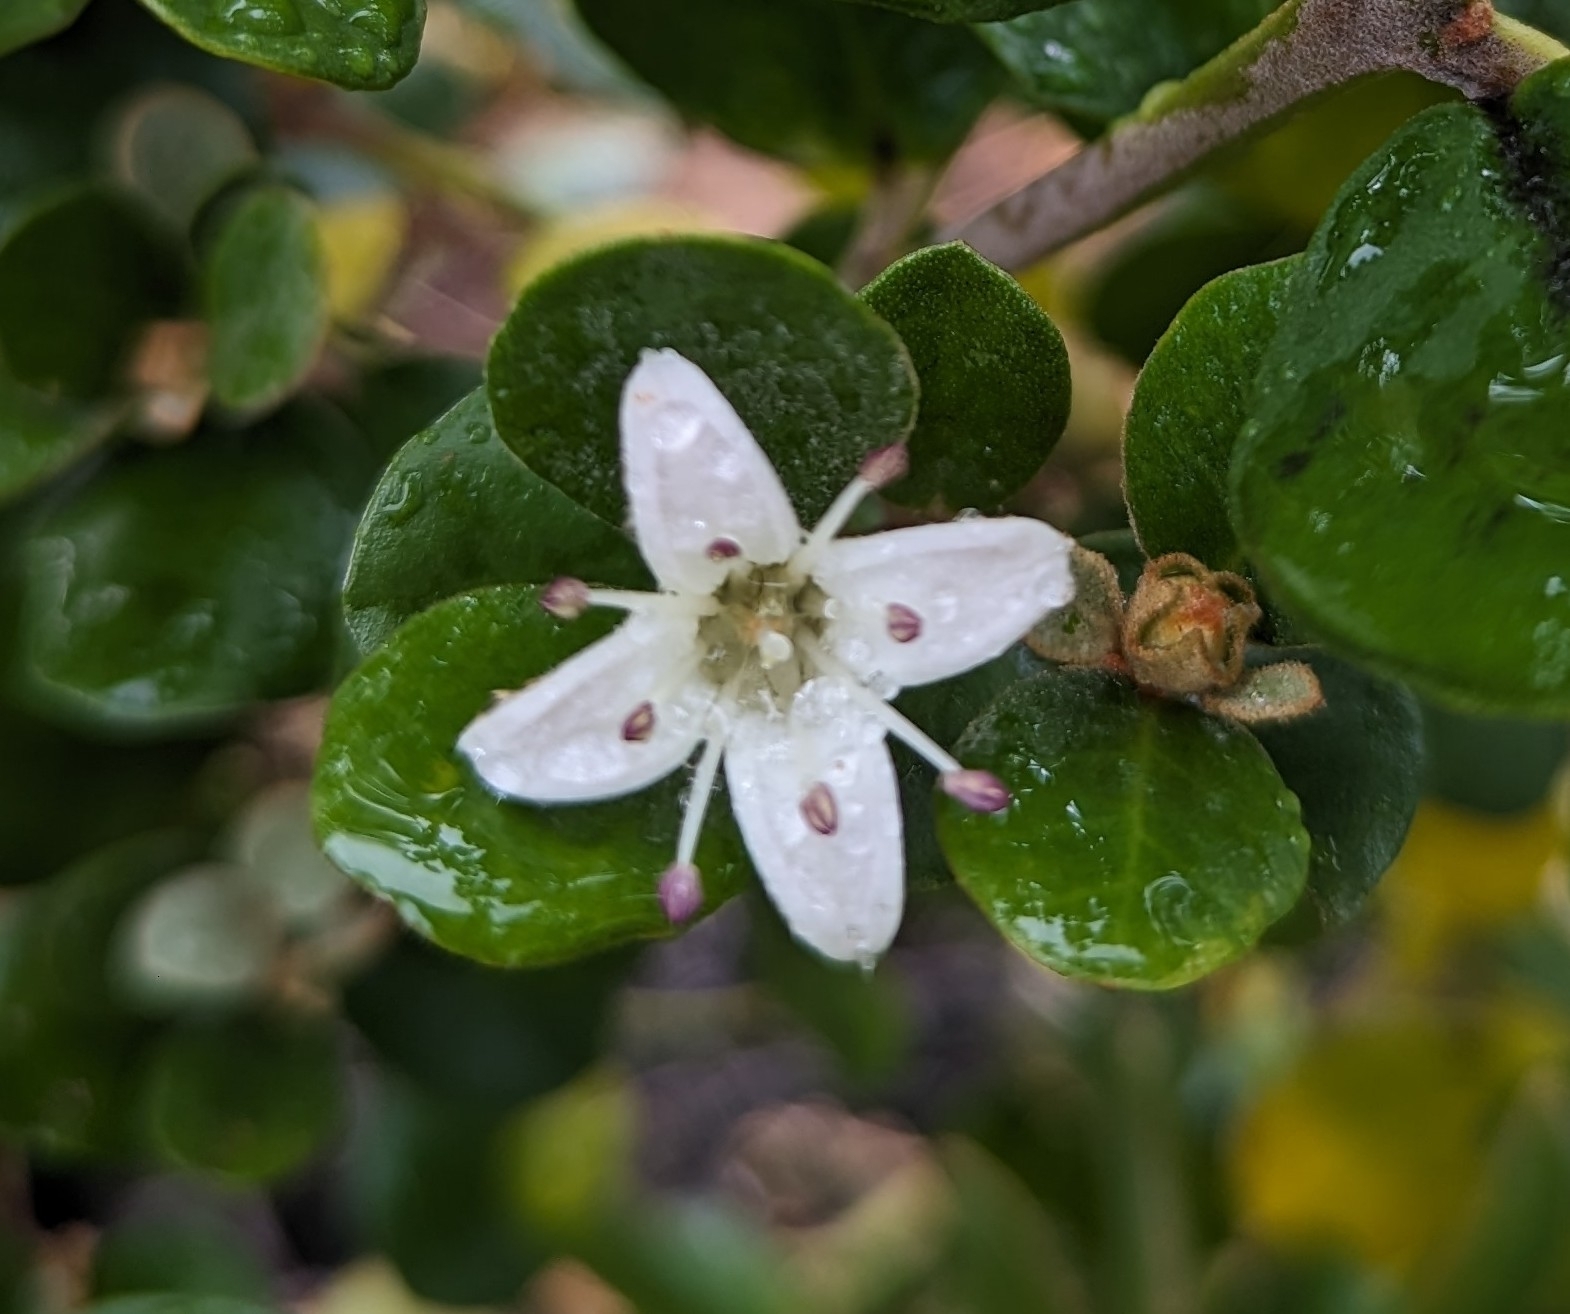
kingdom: Plantae
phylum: Tracheophyta
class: Magnoliopsida
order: Sapindales
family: Rutaceae
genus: Correa
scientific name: Correa alba
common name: White correa
